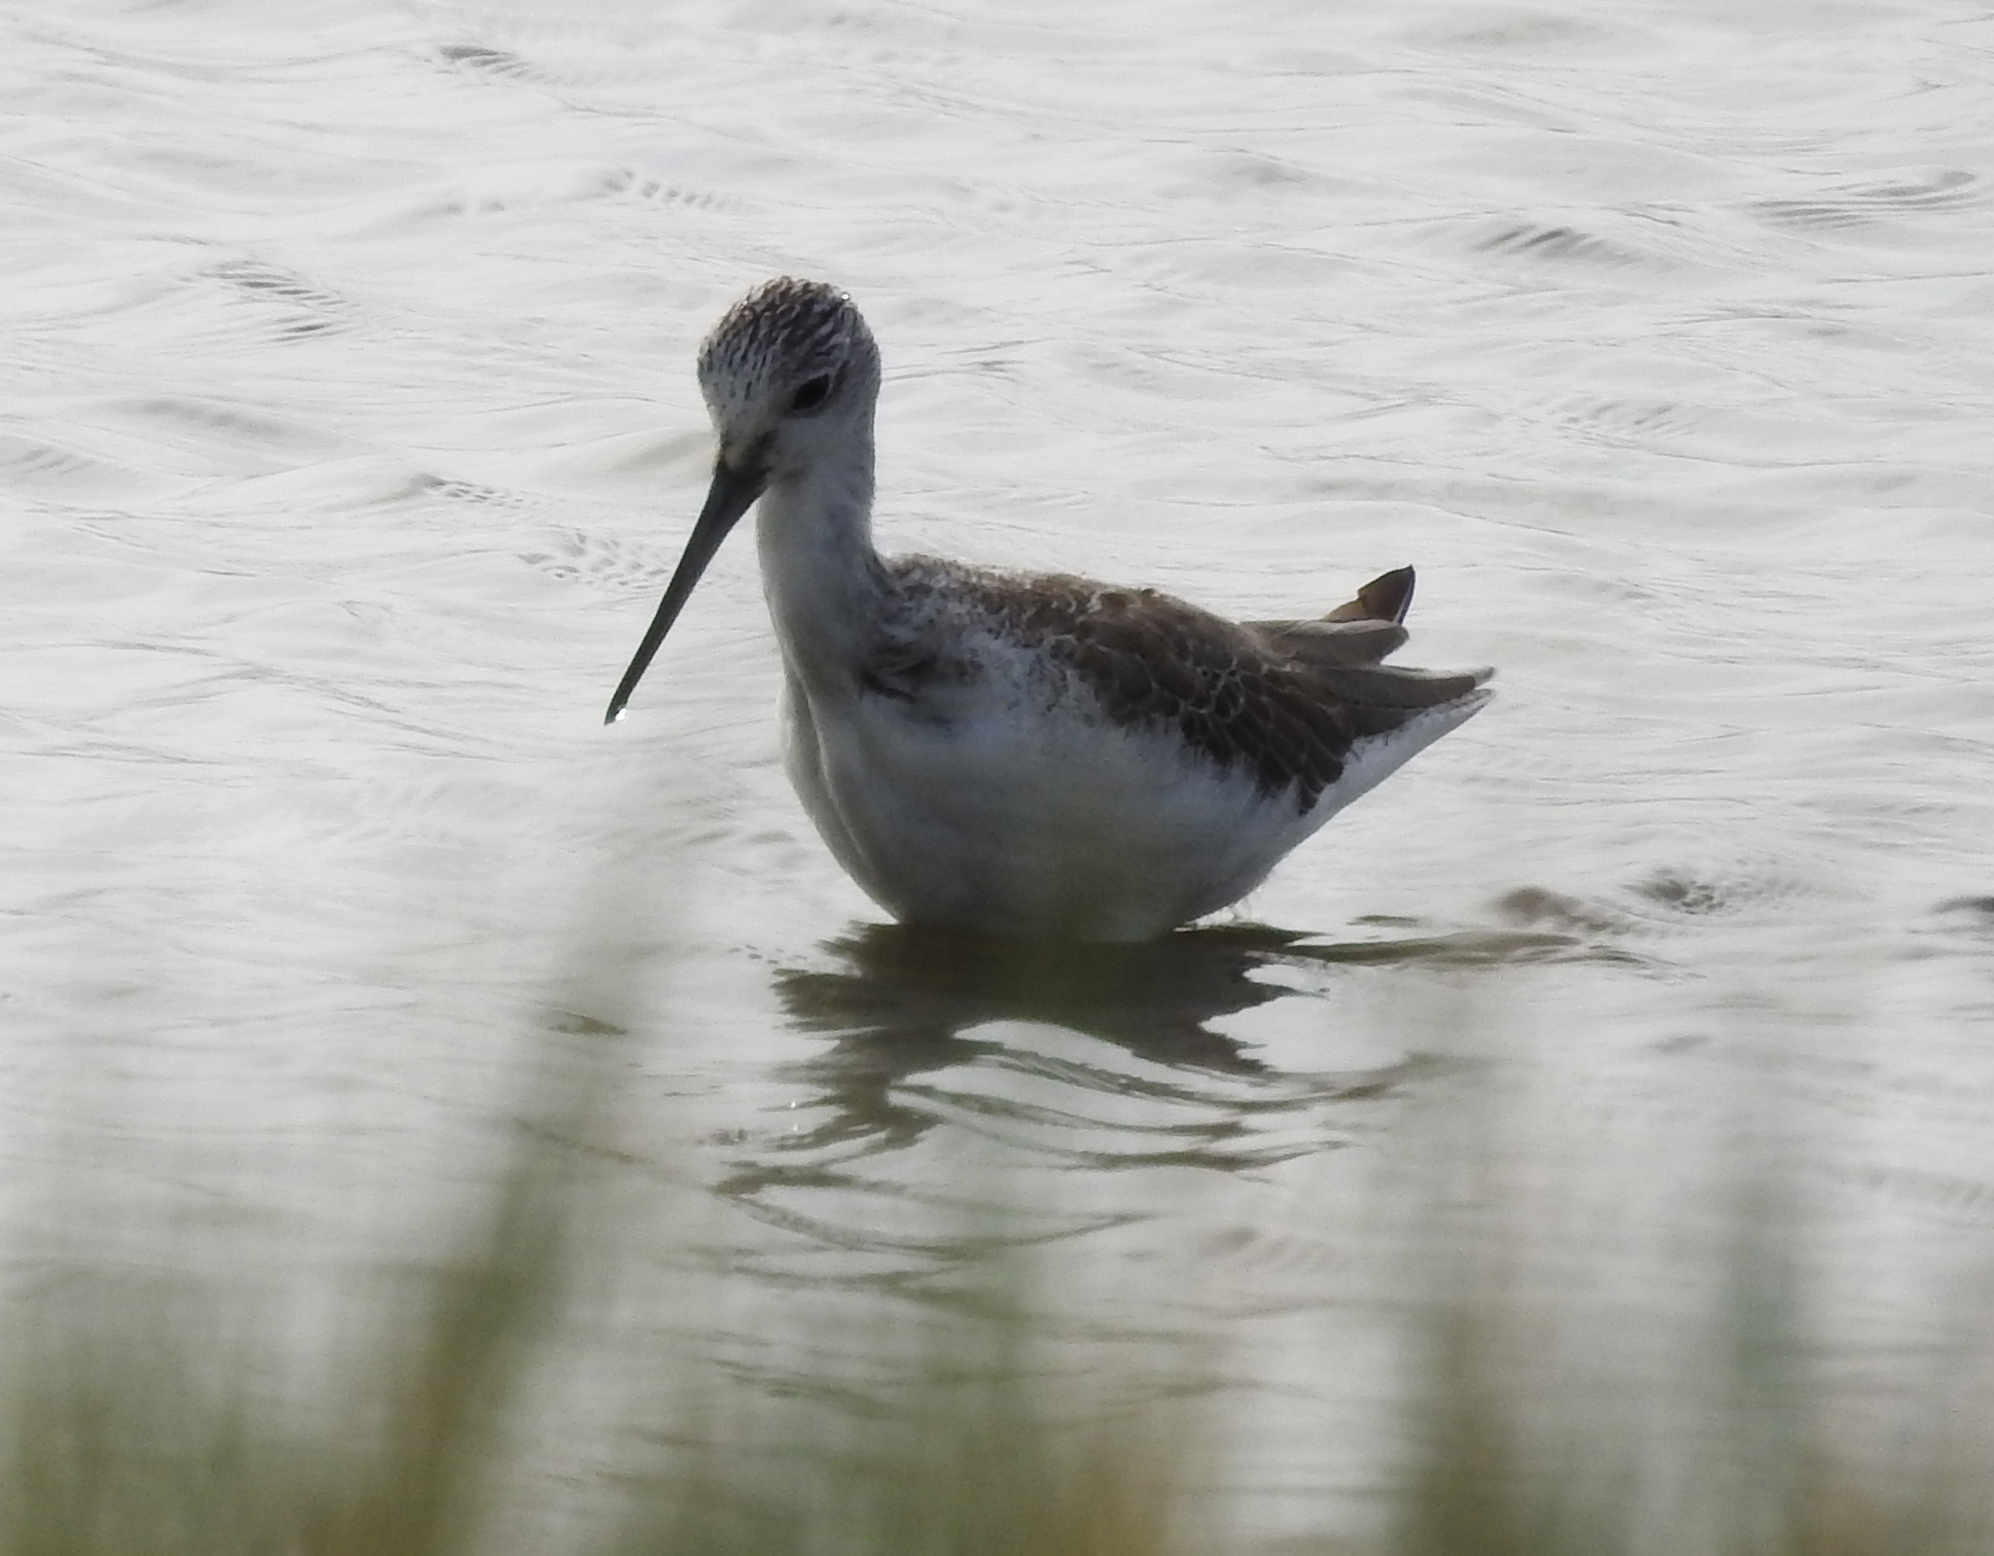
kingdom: Animalia
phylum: Chordata
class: Aves
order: Charadriiformes
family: Scolopacidae
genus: Tringa
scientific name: Tringa nebularia
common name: Common greenshank
